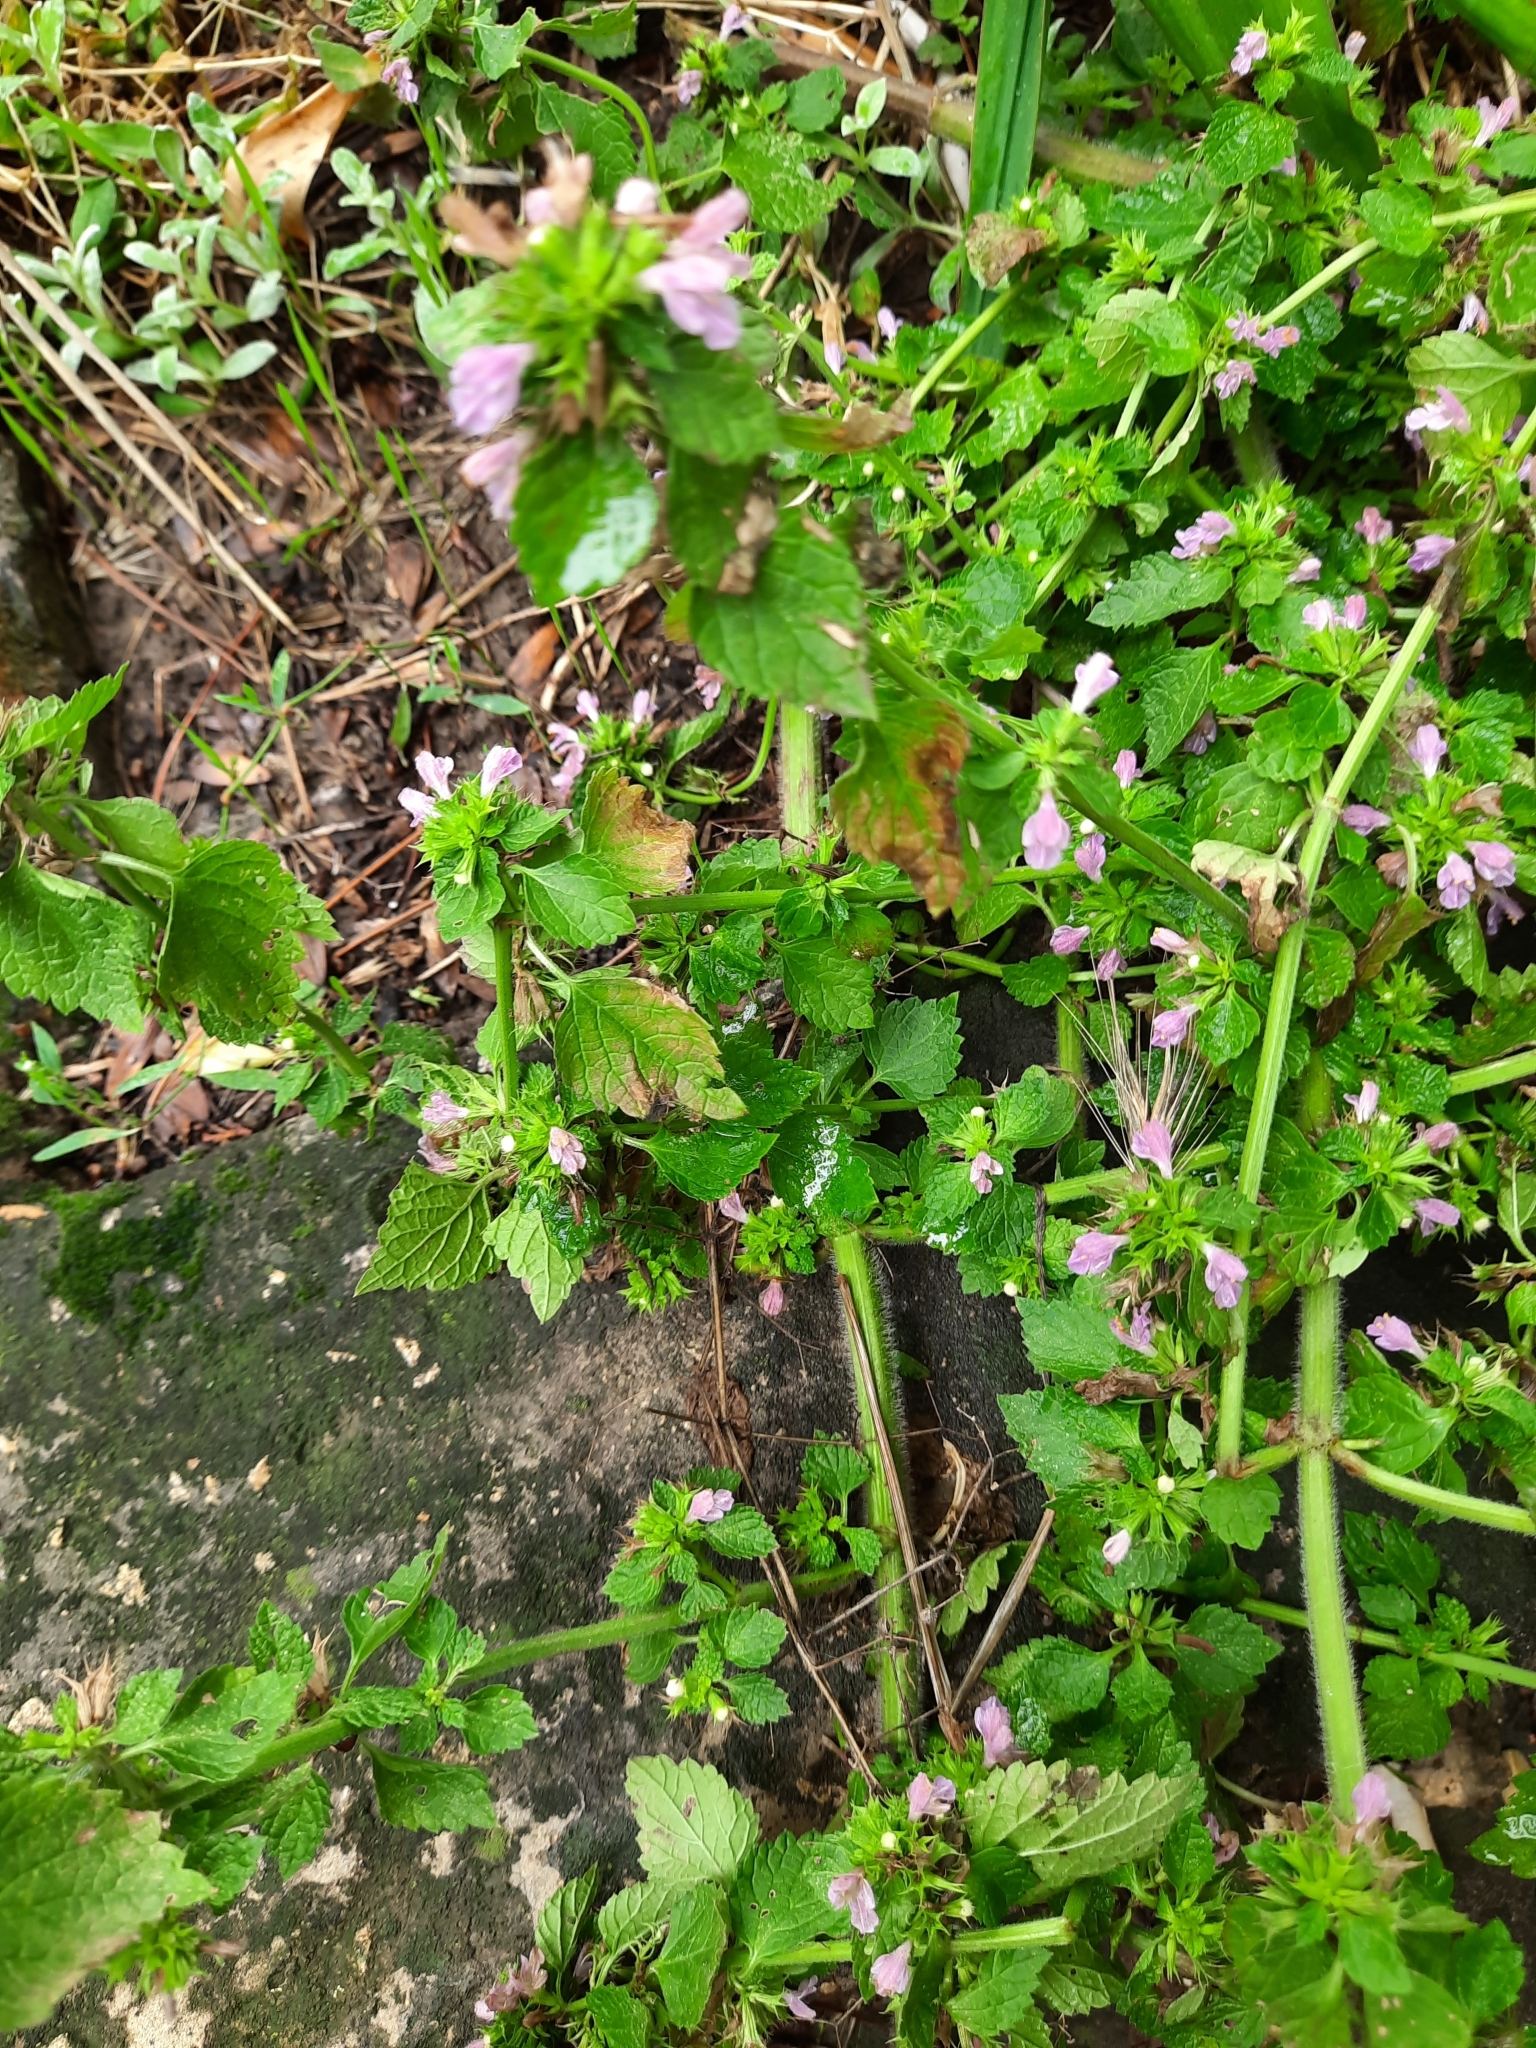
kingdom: Plantae
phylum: Tracheophyta
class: Magnoliopsida
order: Lamiales
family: Lamiaceae
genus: Ballota
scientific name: Ballota nigra
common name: Black horehound
